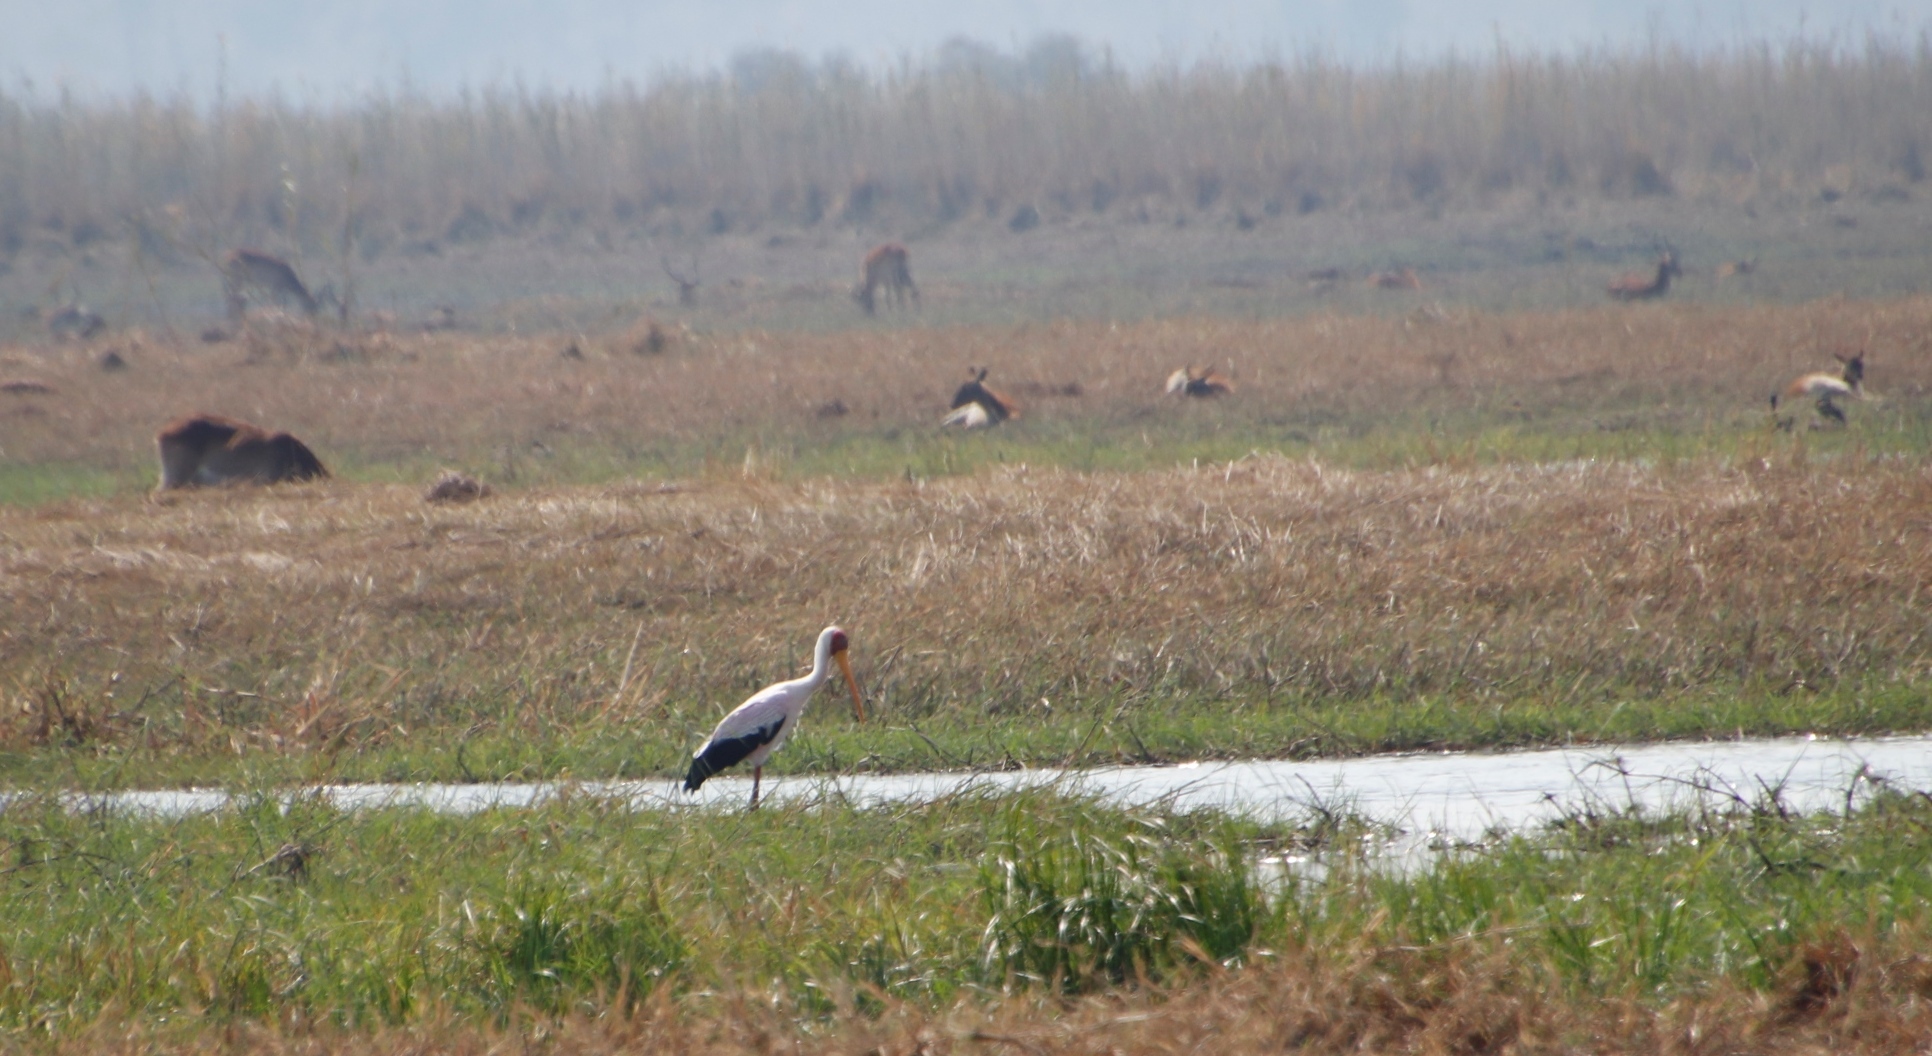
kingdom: Animalia
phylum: Chordata
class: Aves
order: Ciconiiformes
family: Ciconiidae
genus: Mycteria
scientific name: Mycteria ibis
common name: Yellow-billed stork
